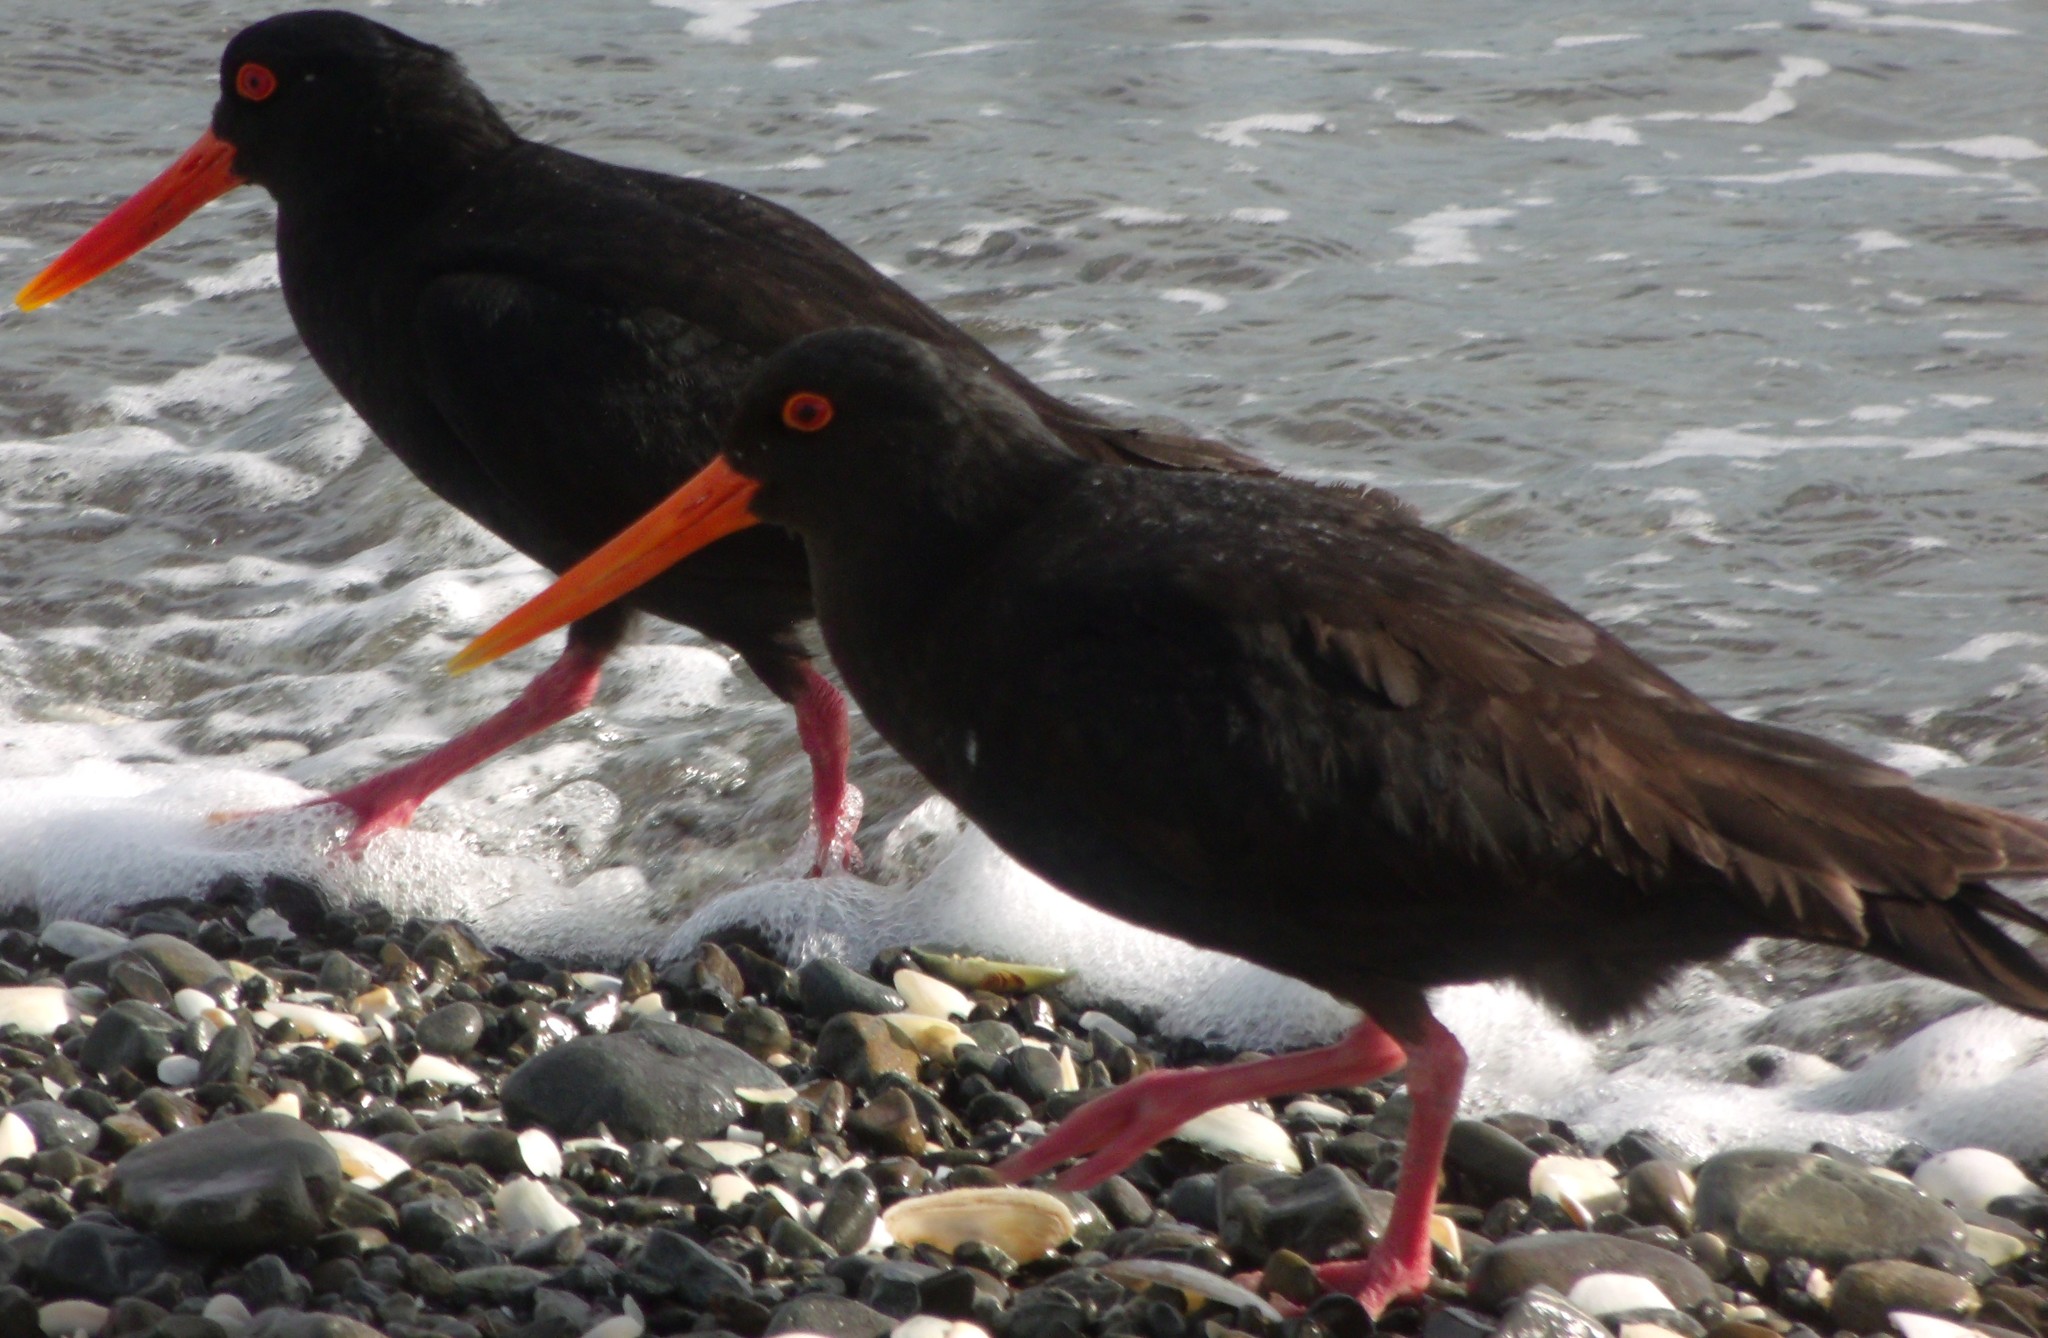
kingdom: Animalia
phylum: Chordata
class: Aves
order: Charadriiformes
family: Haematopodidae
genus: Haematopus
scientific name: Haematopus unicolor
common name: Variable oystercatcher
